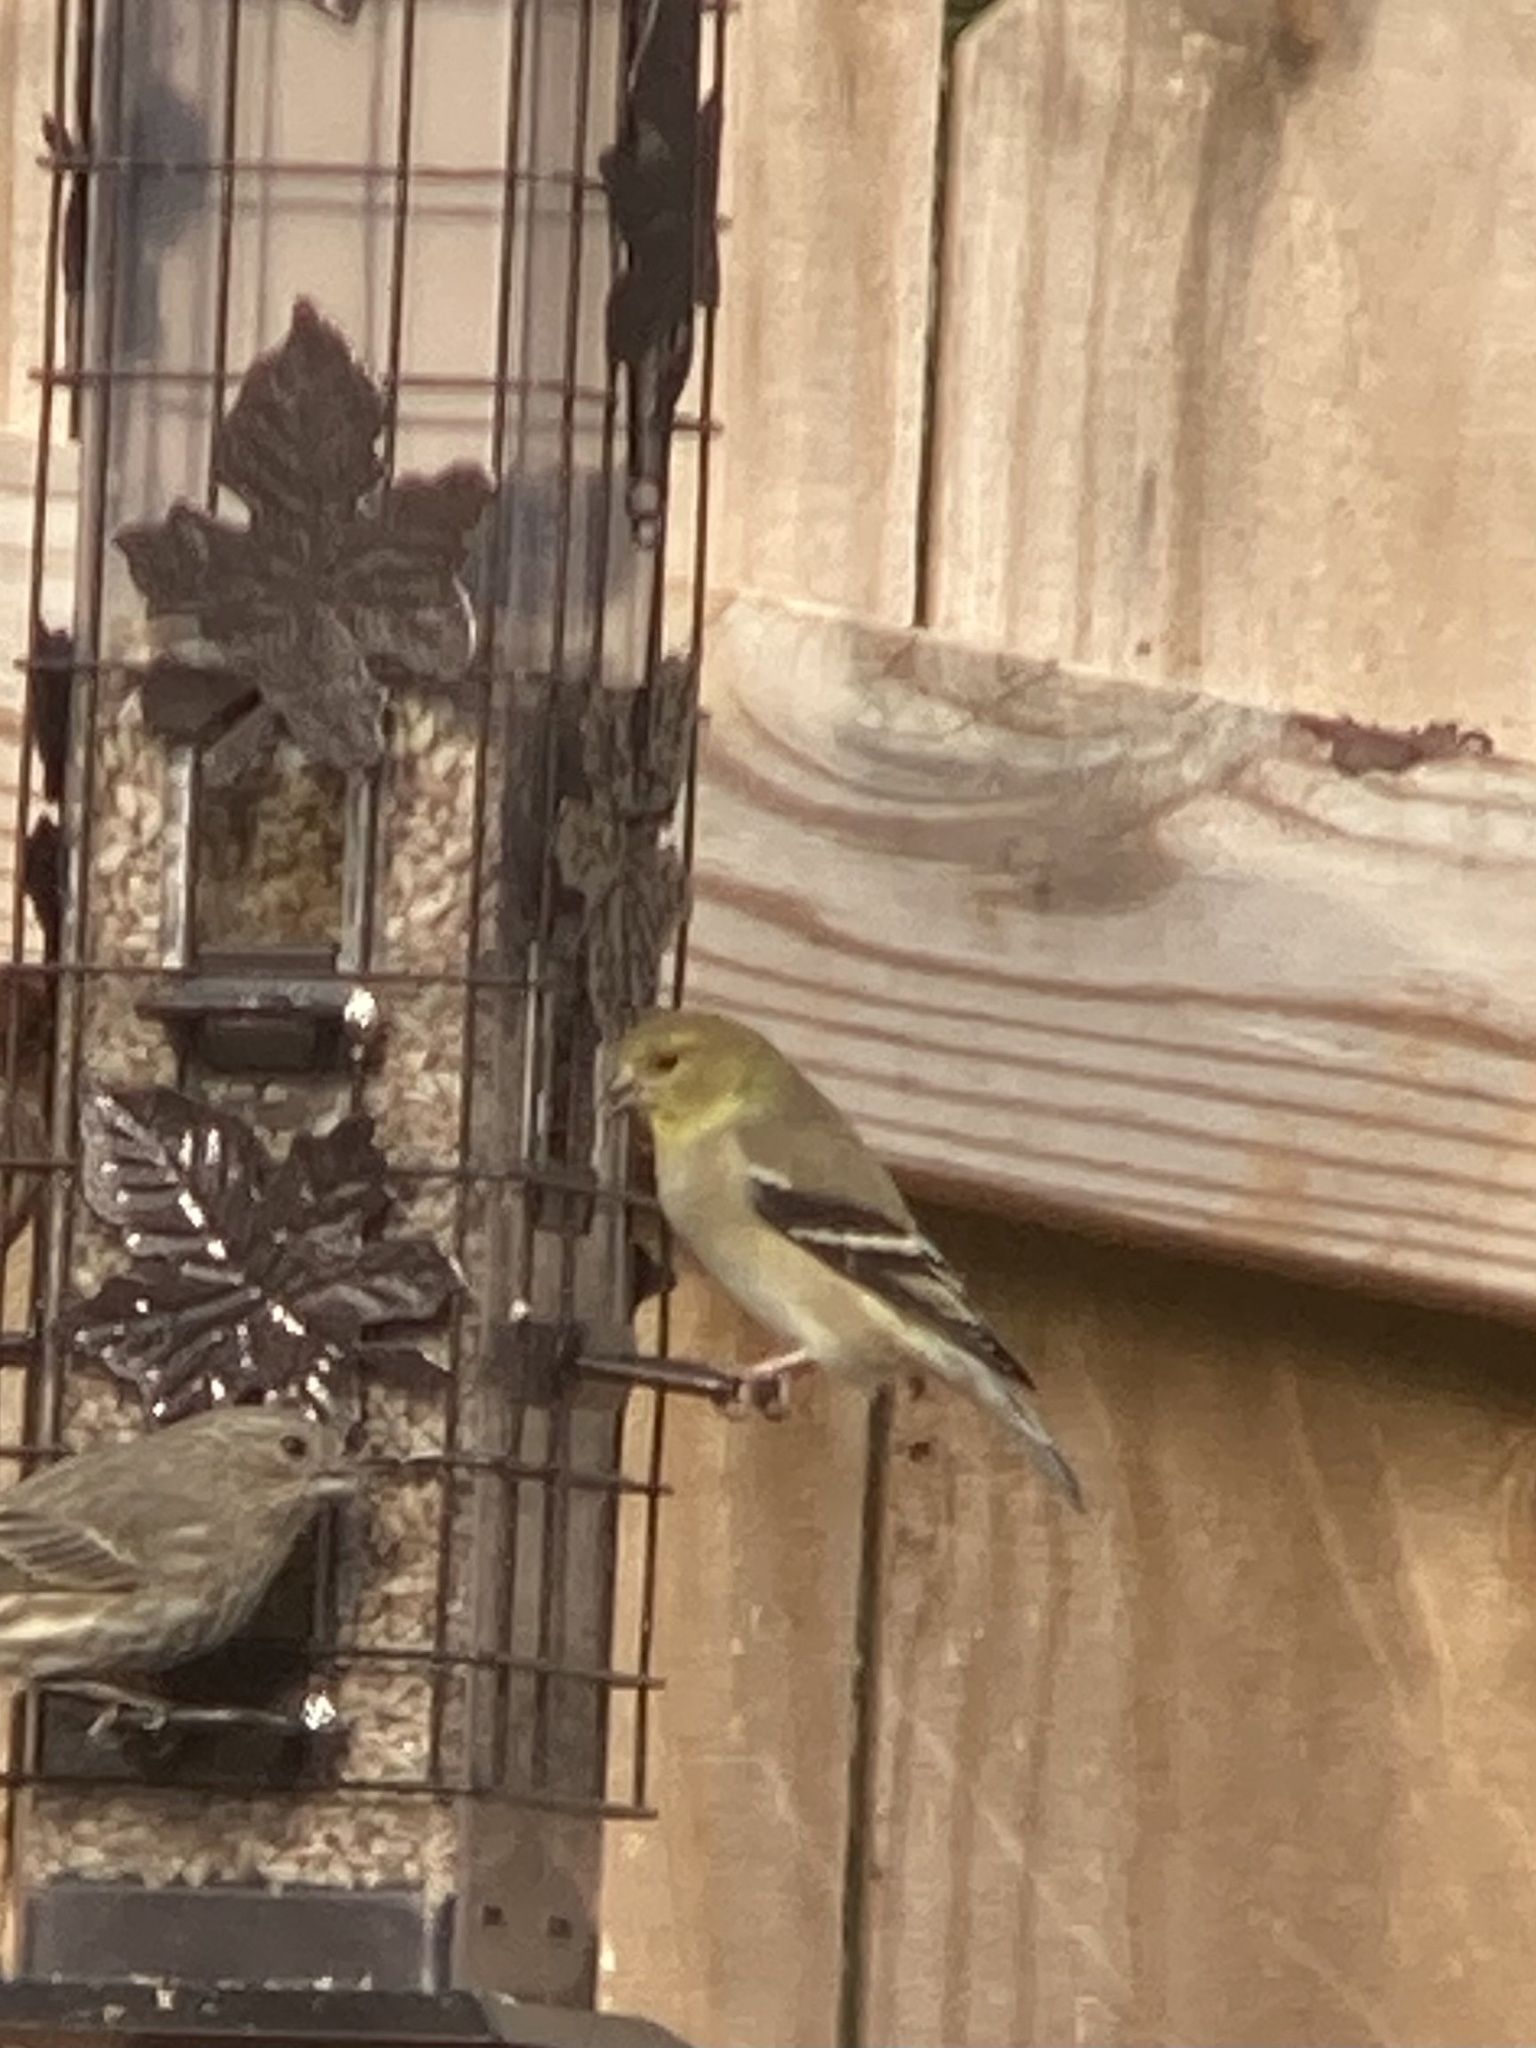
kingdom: Animalia
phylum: Chordata
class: Aves
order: Passeriformes
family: Fringillidae
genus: Spinus
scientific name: Spinus tristis
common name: American goldfinch
